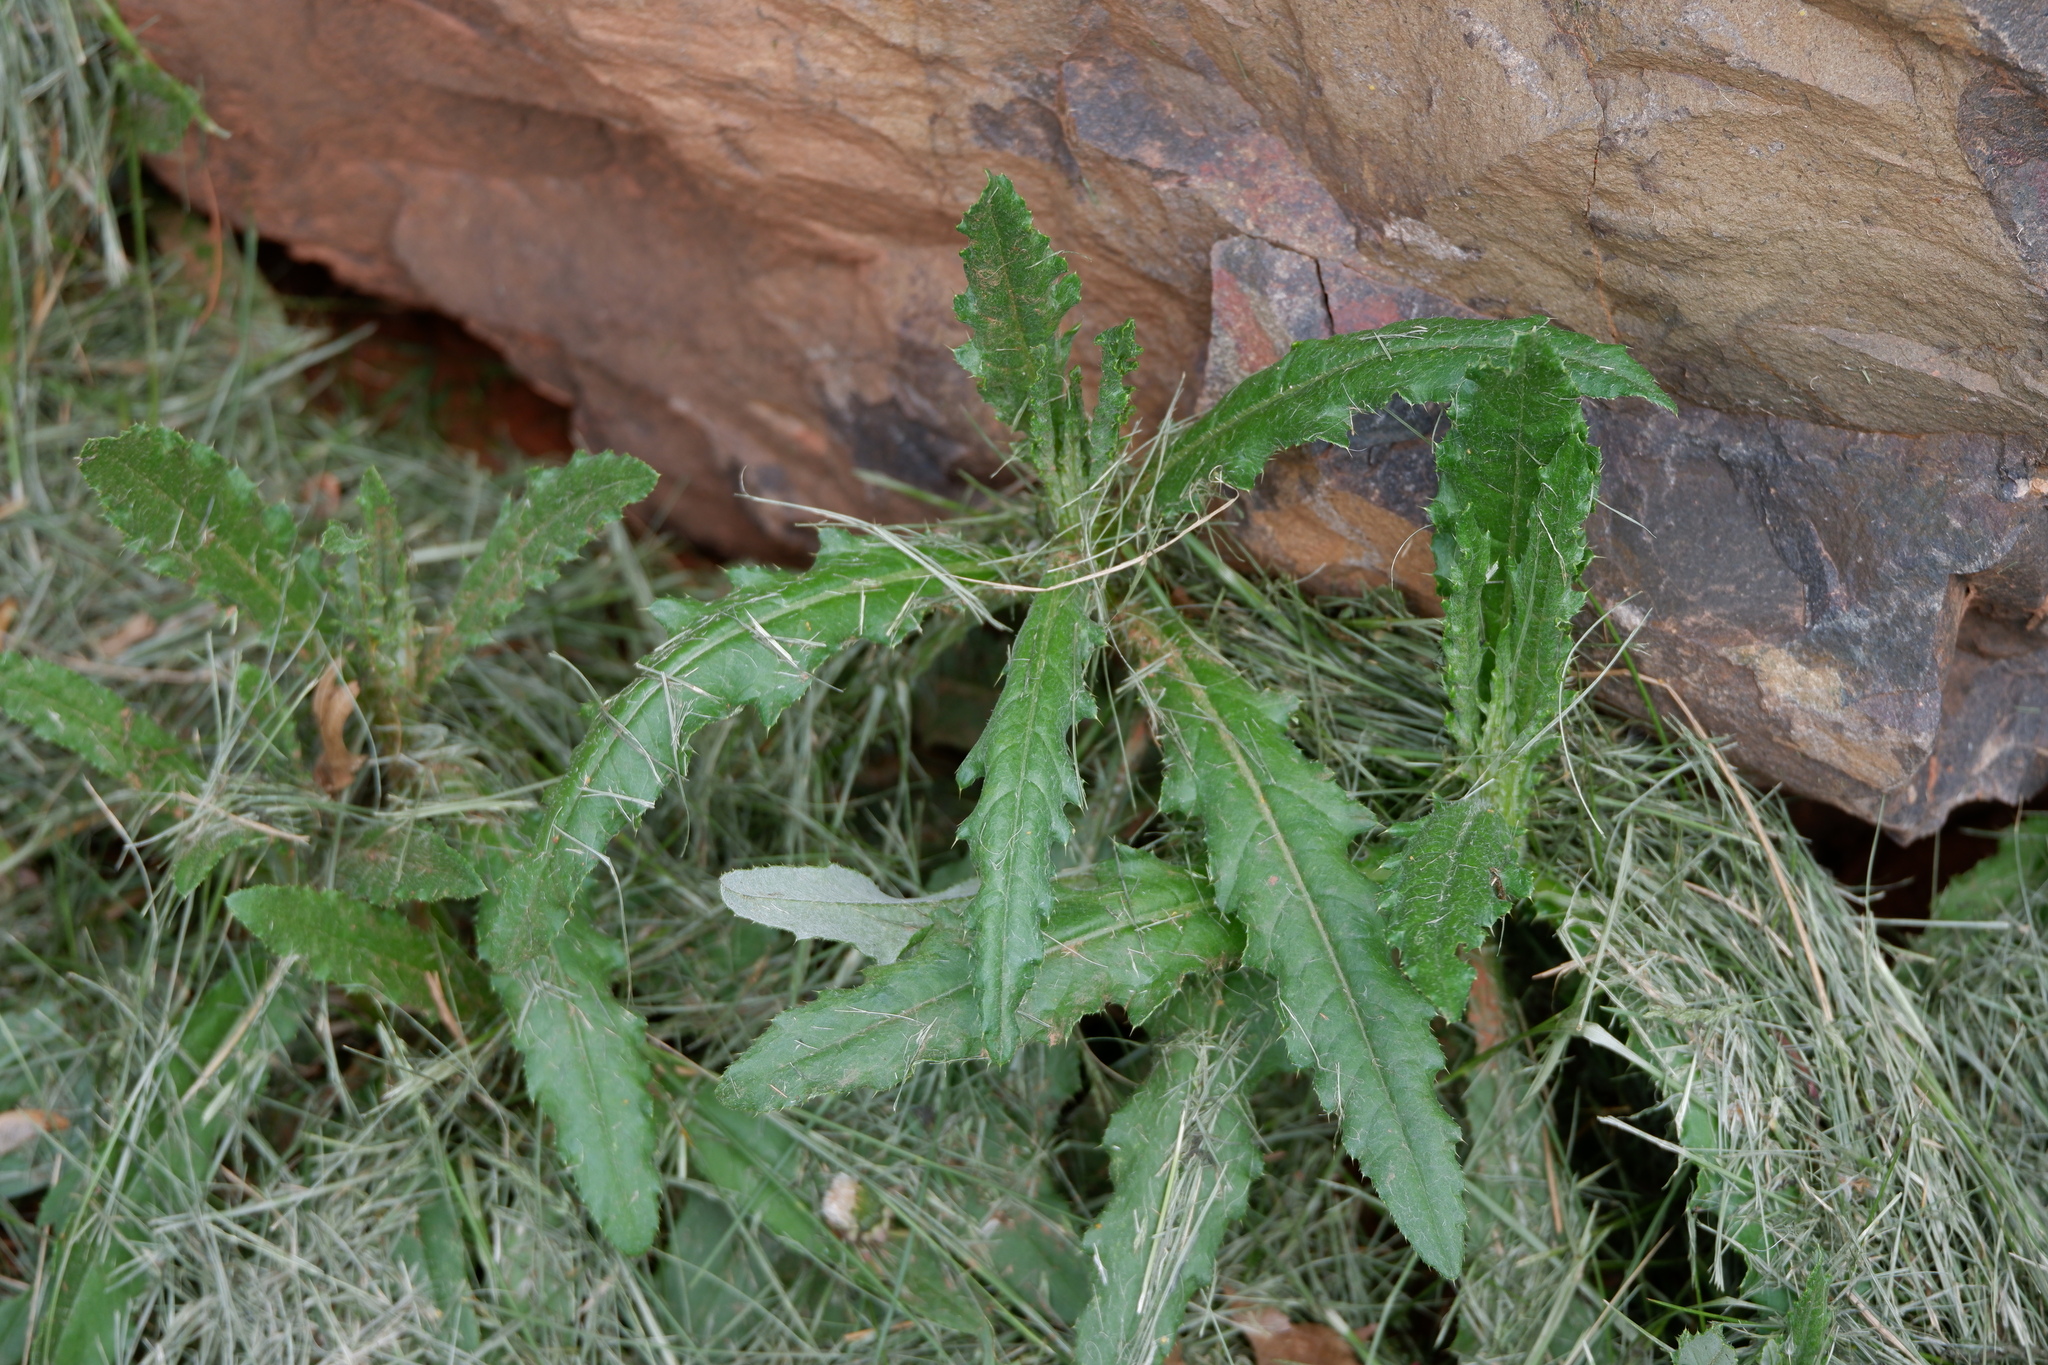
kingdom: Plantae
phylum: Tracheophyta
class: Magnoliopsida
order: Asterales
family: Asteraceae
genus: Cirsium
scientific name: Cirsium arvense
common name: Creeping thistle
